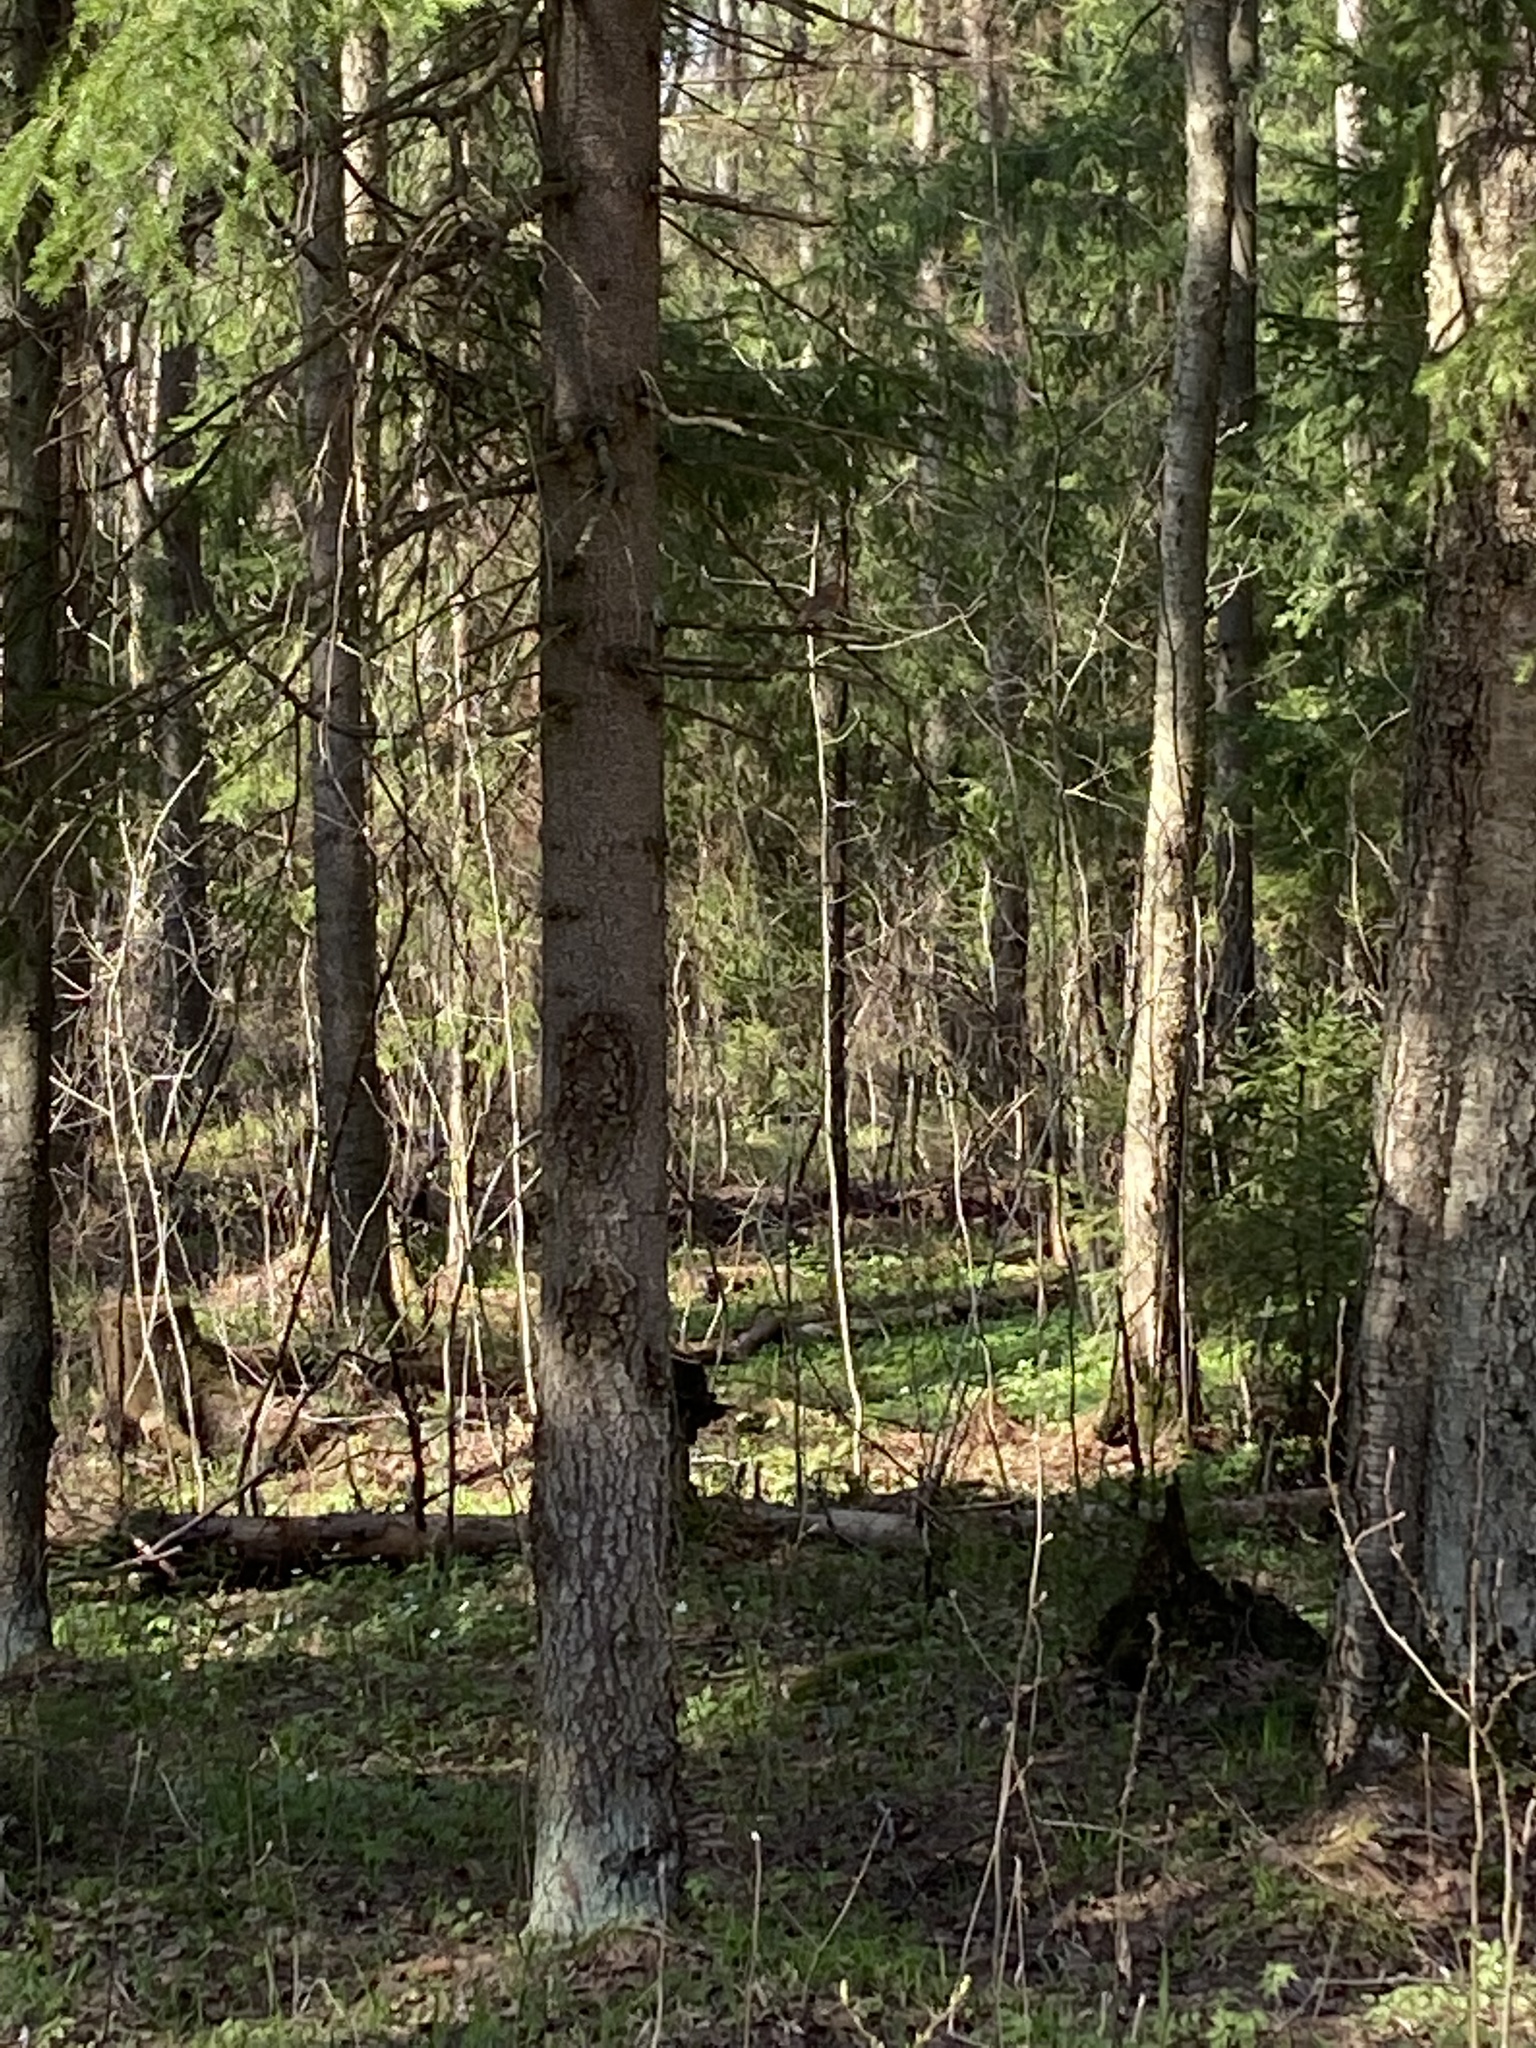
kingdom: Animalia
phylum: Chordata
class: Aves
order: Passeriformes
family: Muscicapidae
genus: Erithacus
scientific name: Erithacus rubecula
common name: European robin
